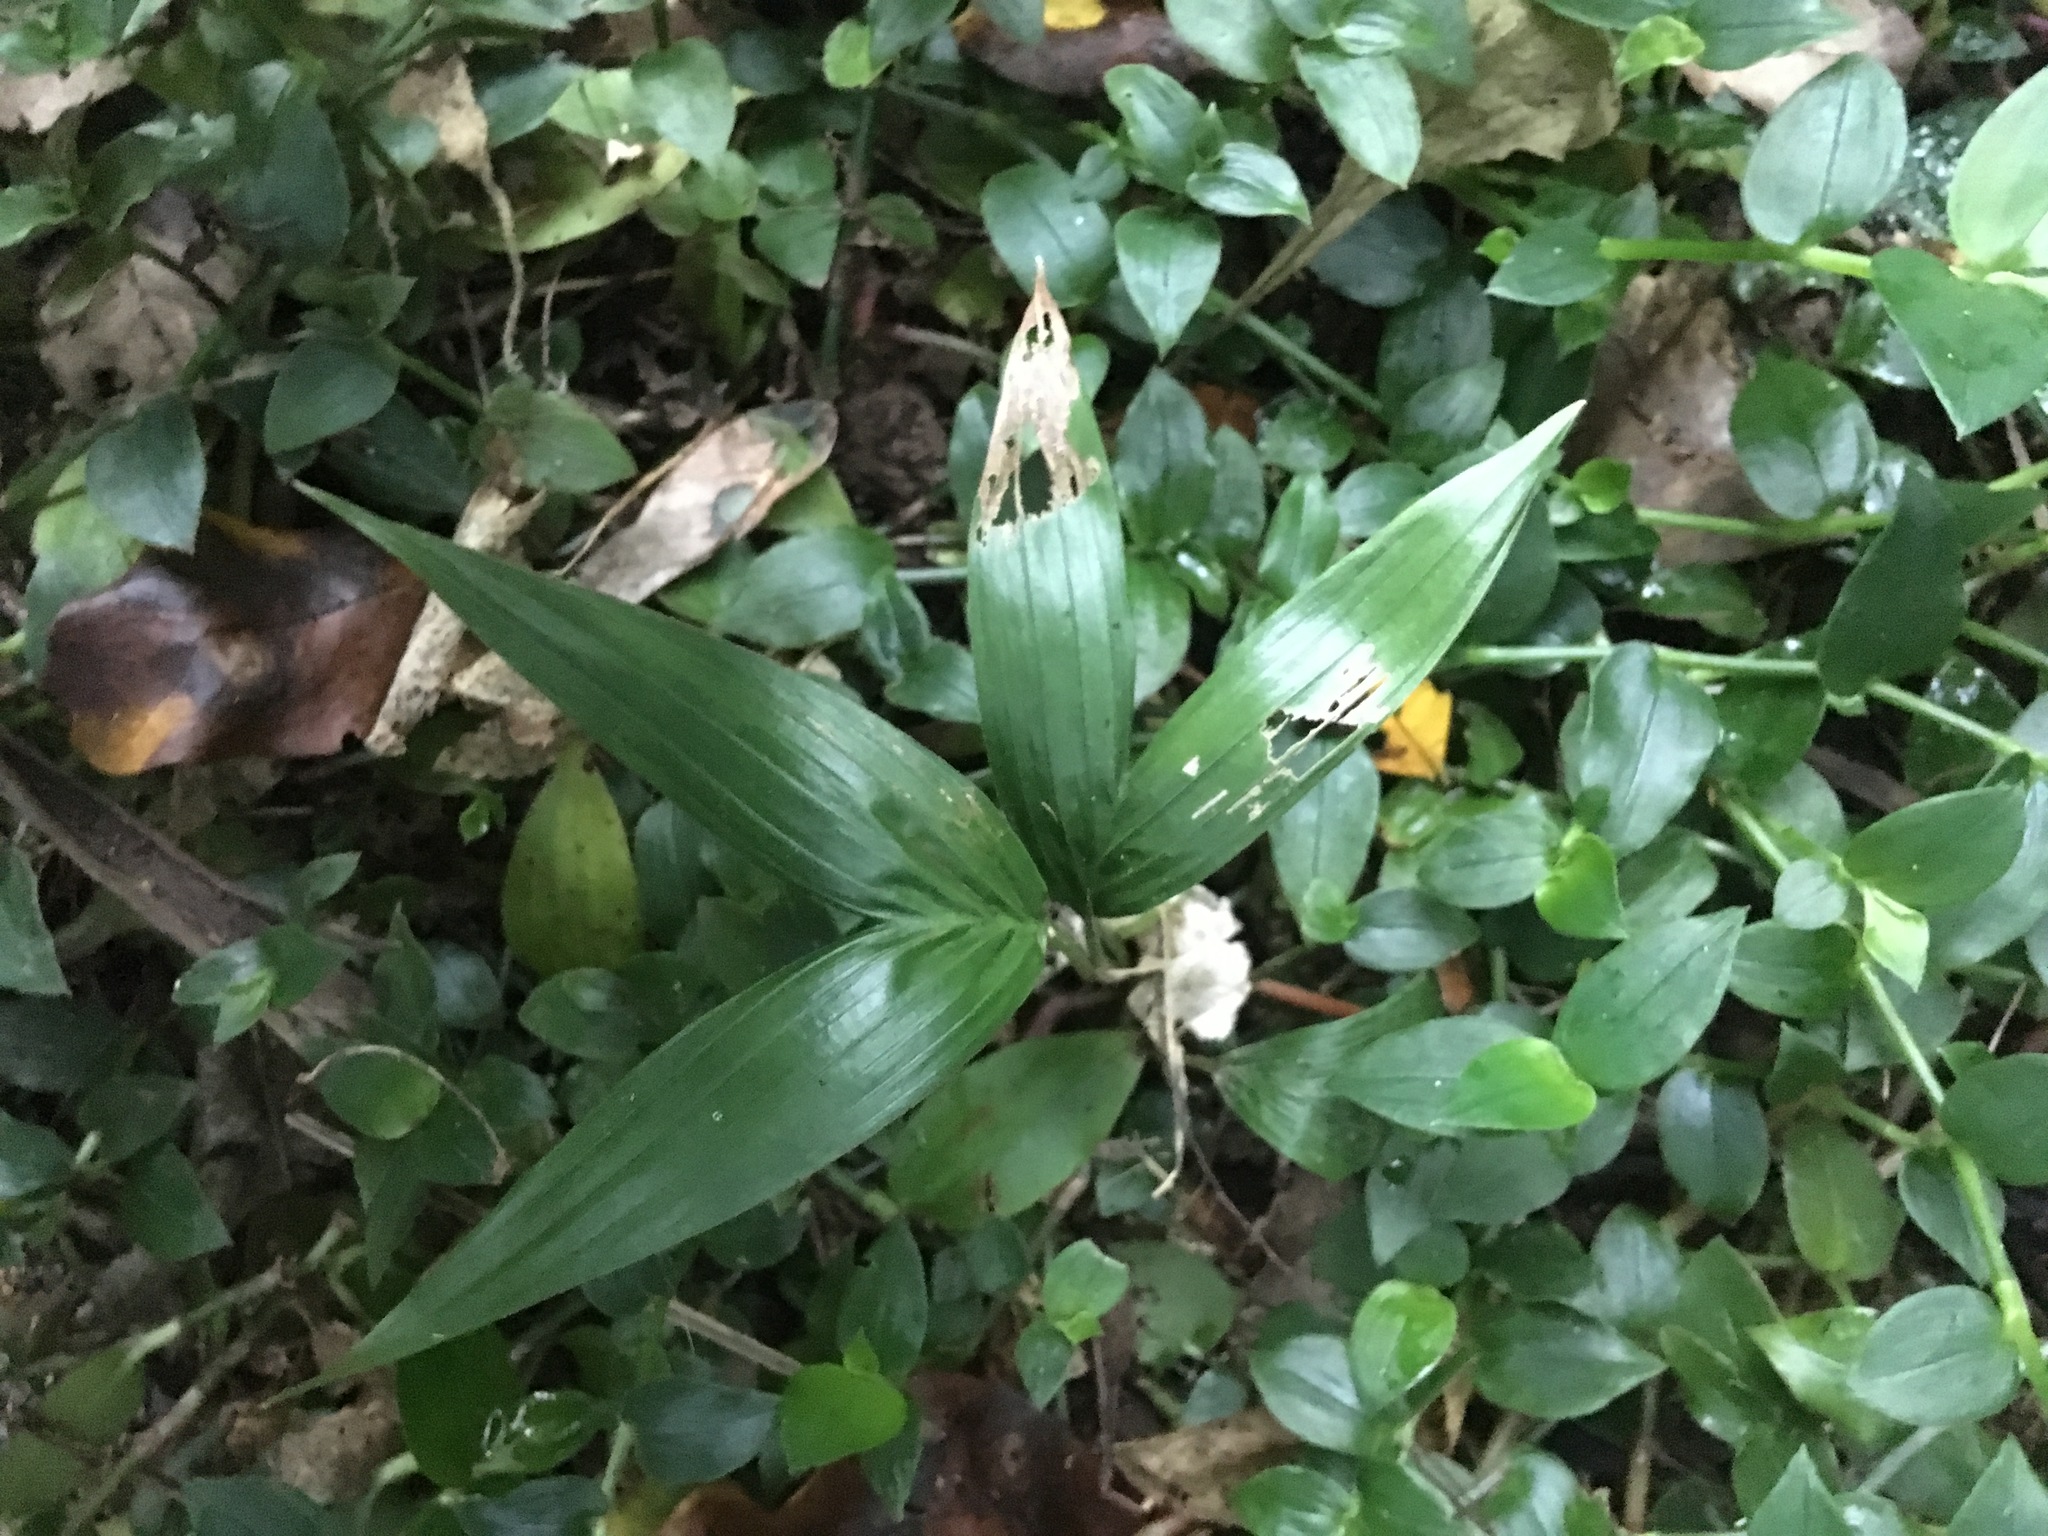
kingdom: Plantae
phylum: Tracheophyta
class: Liliopsida
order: Arecales
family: Arecaceae
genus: Archontophoenix
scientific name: Archontophoenix cunninghamiana
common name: Piccabeen bangalow palm
